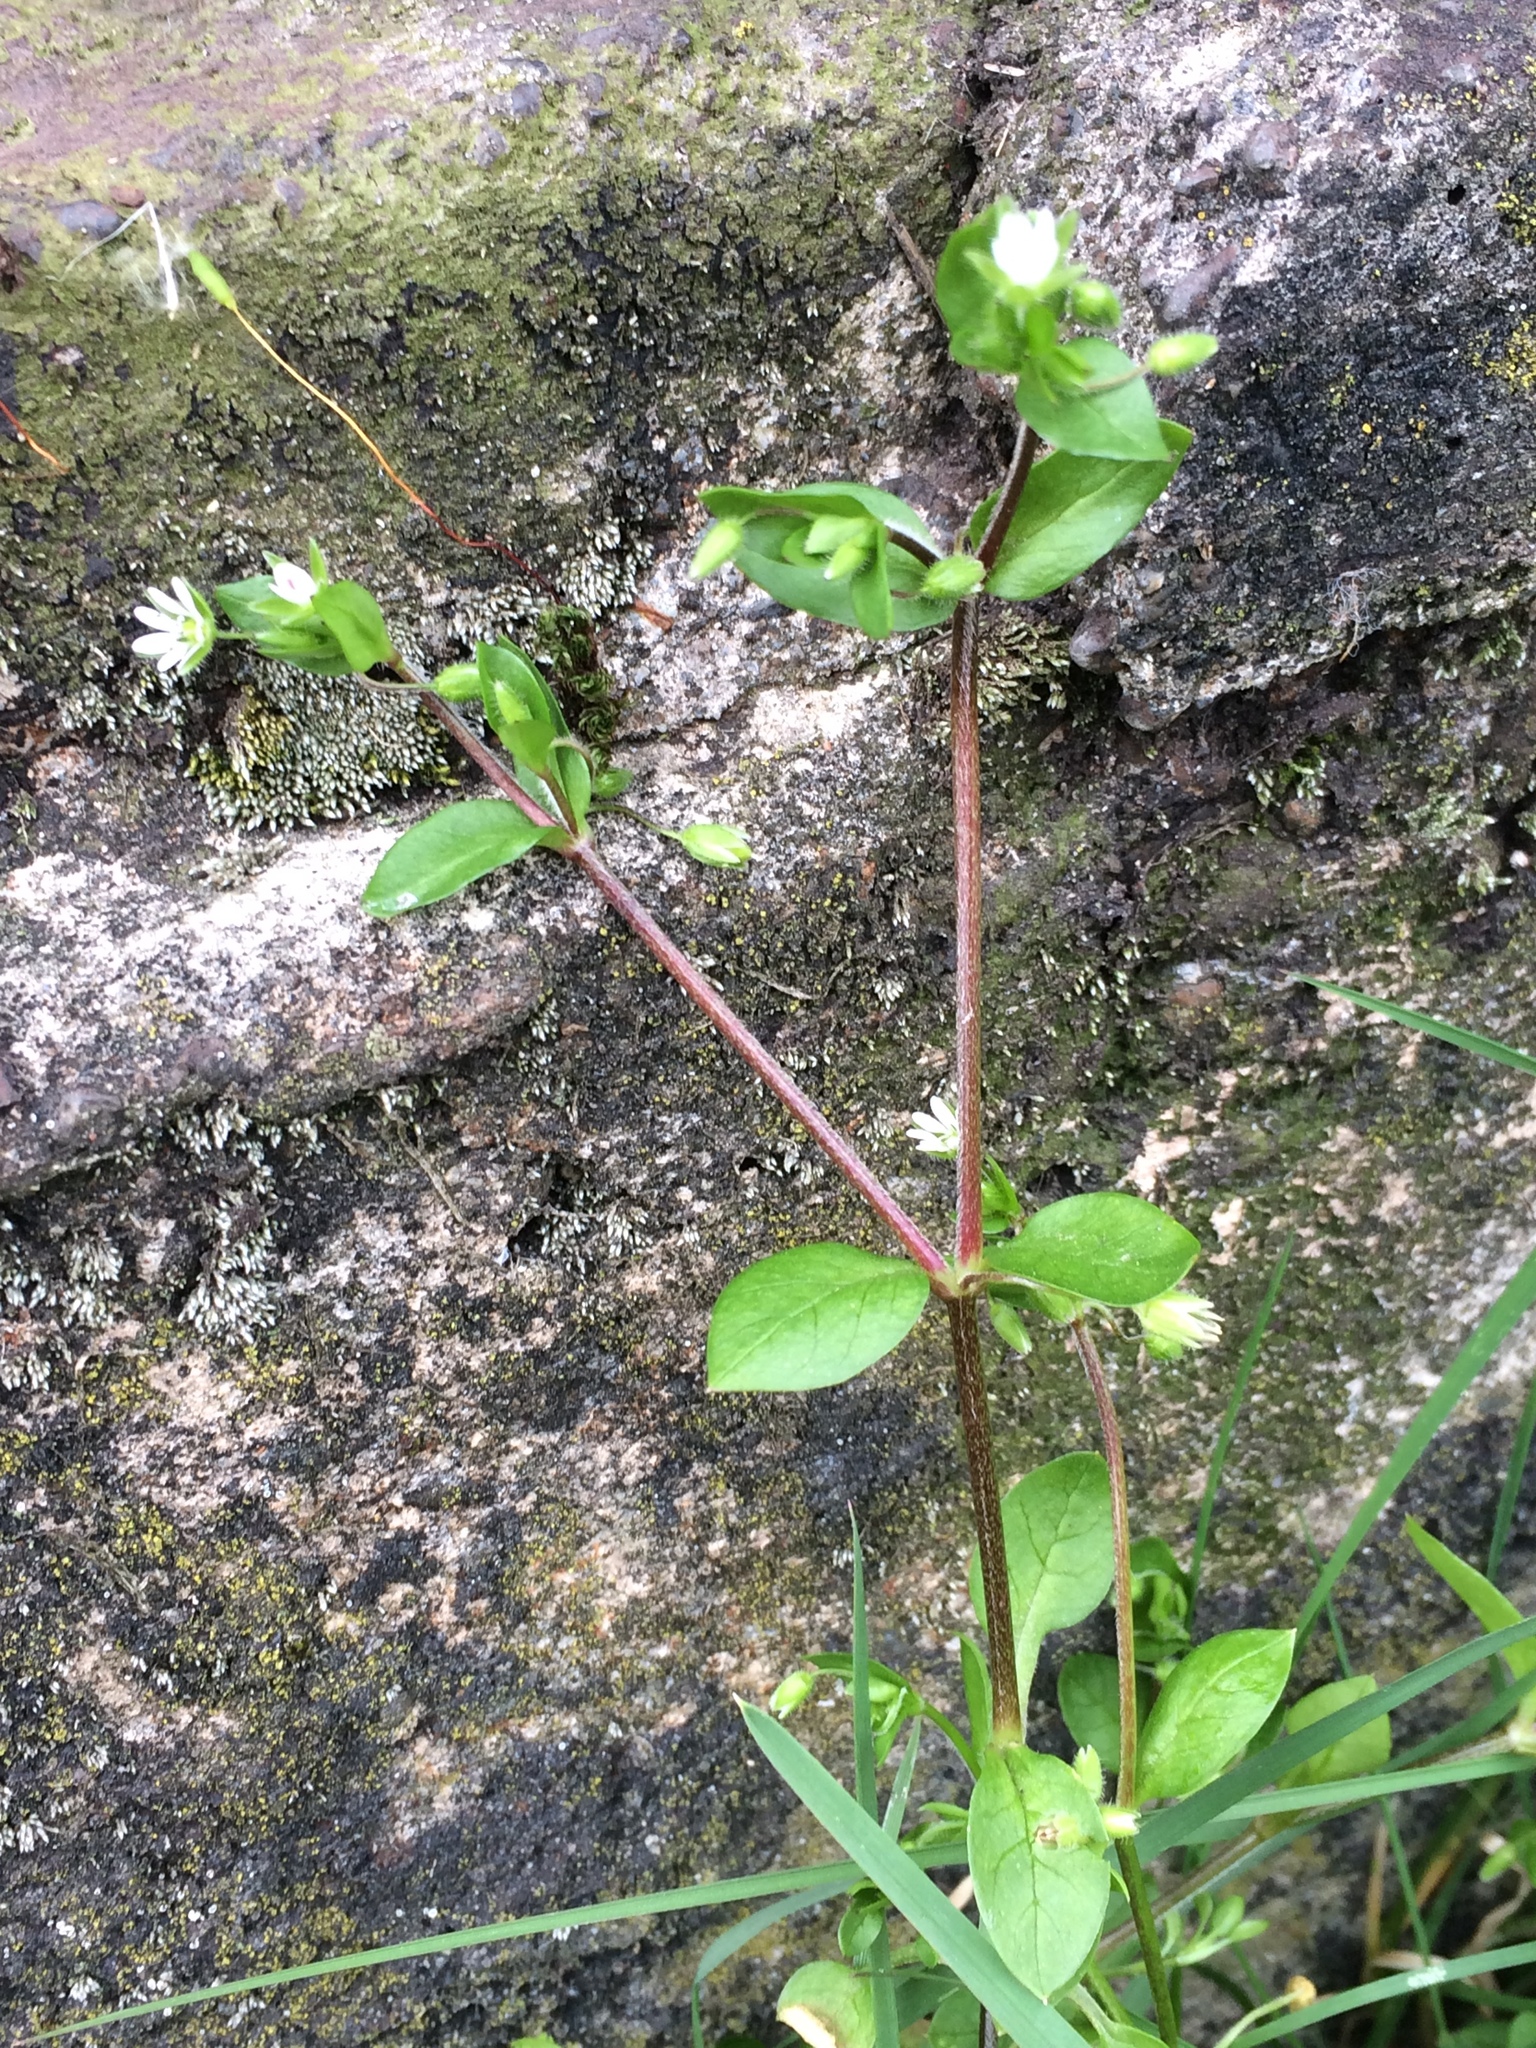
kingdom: Plantae
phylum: Tracheophyta
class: Magnoliopsida
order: Caryophyllales
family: Caryophyllaceae
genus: Stellaria
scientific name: Stellaria media
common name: Common chickweed
